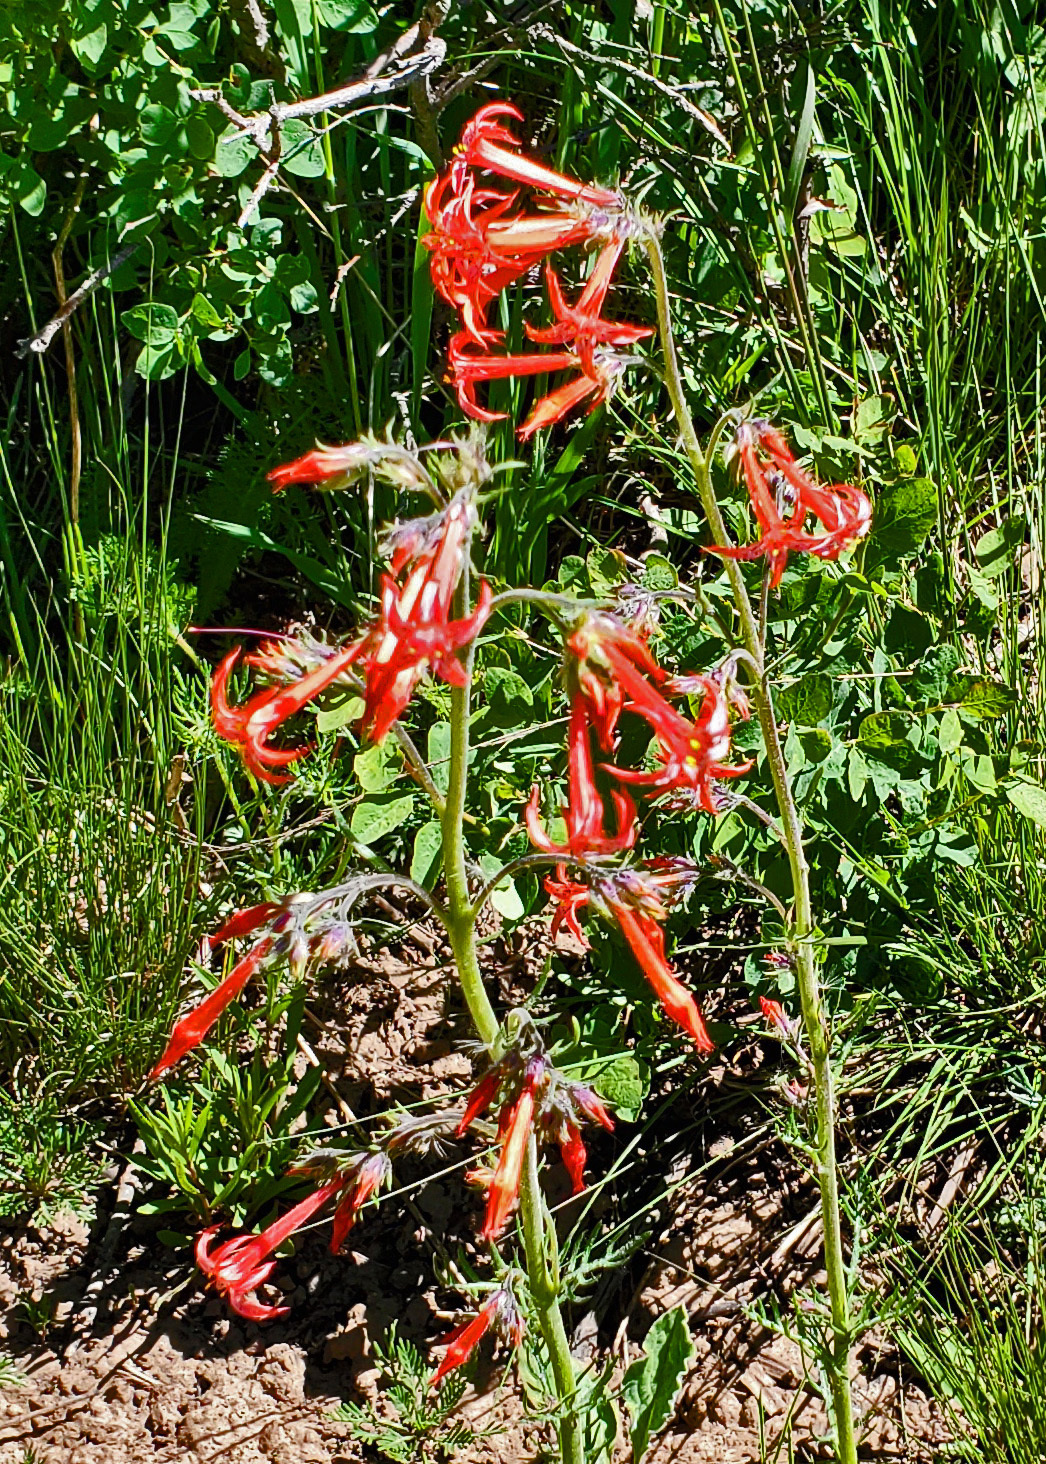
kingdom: Plantae
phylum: Tracheophyta
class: Magnoliopsida
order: Ericales
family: Polemoniaceae
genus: Ipomopsis
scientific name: Ipomopsis aggregata
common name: Scarlet gilia
